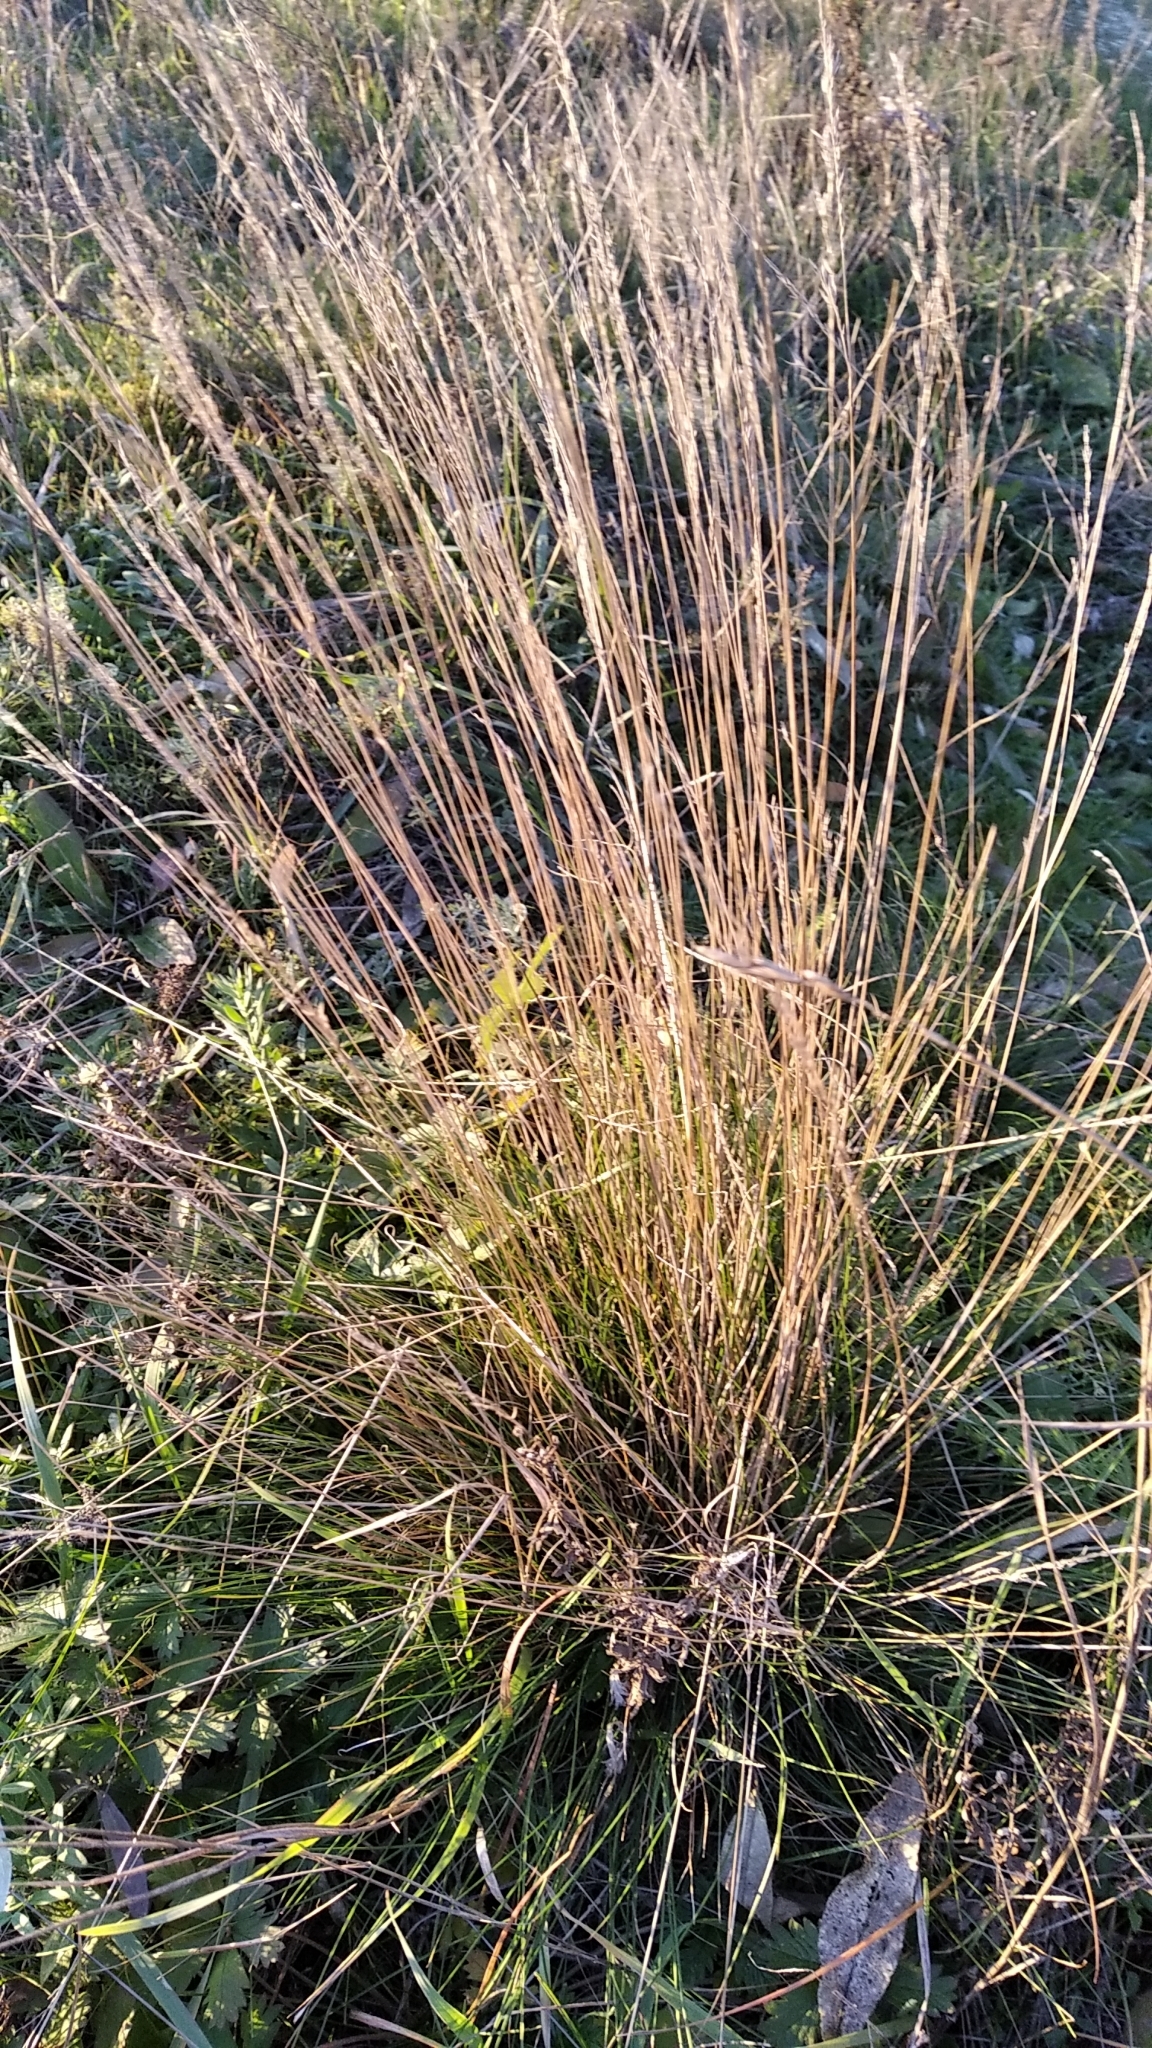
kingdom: Plantae
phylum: Tracheophyta
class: Liliopsida
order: Poales
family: Poaceae
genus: Festuca
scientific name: Festuca beckeri
